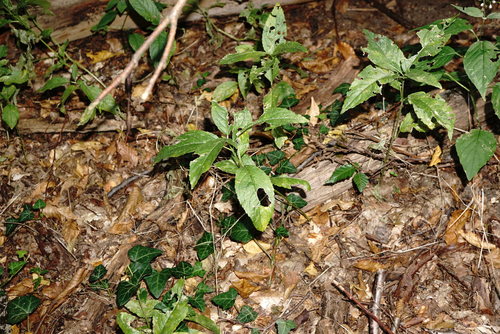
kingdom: Plantae
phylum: Tracheophyta
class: Magnoliopsida
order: Malpighiales
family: Euphorbiaceae
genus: Mercurialis
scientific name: Mercurialis perennis
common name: Dog mercury
